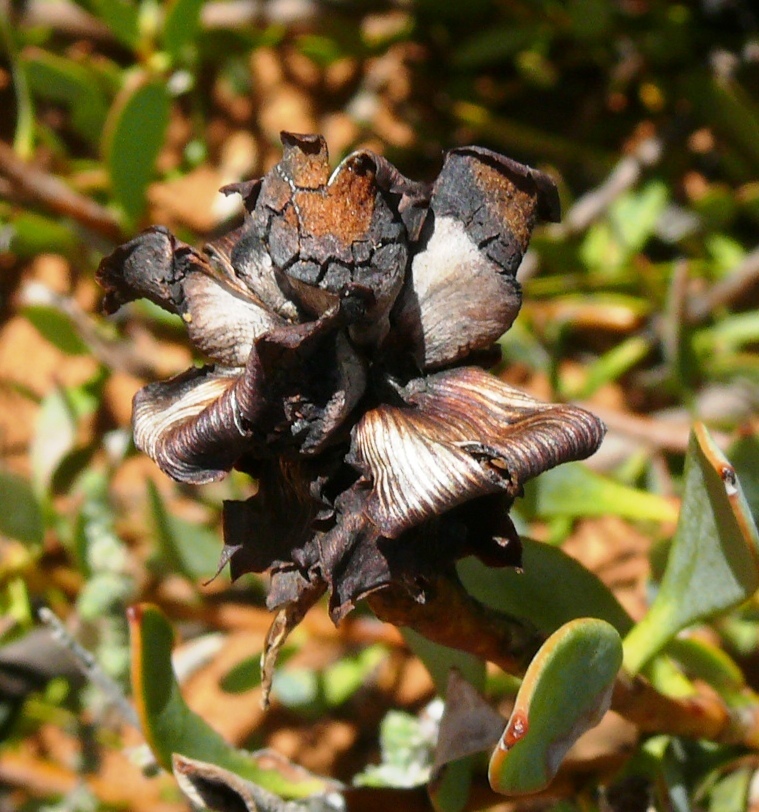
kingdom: Plantae
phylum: Tracheophyta
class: Magnoliopsida
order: Proteales
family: Proteaceae
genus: Leucadendron
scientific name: Leucadendron glaberrimum
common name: Common oily conebush
